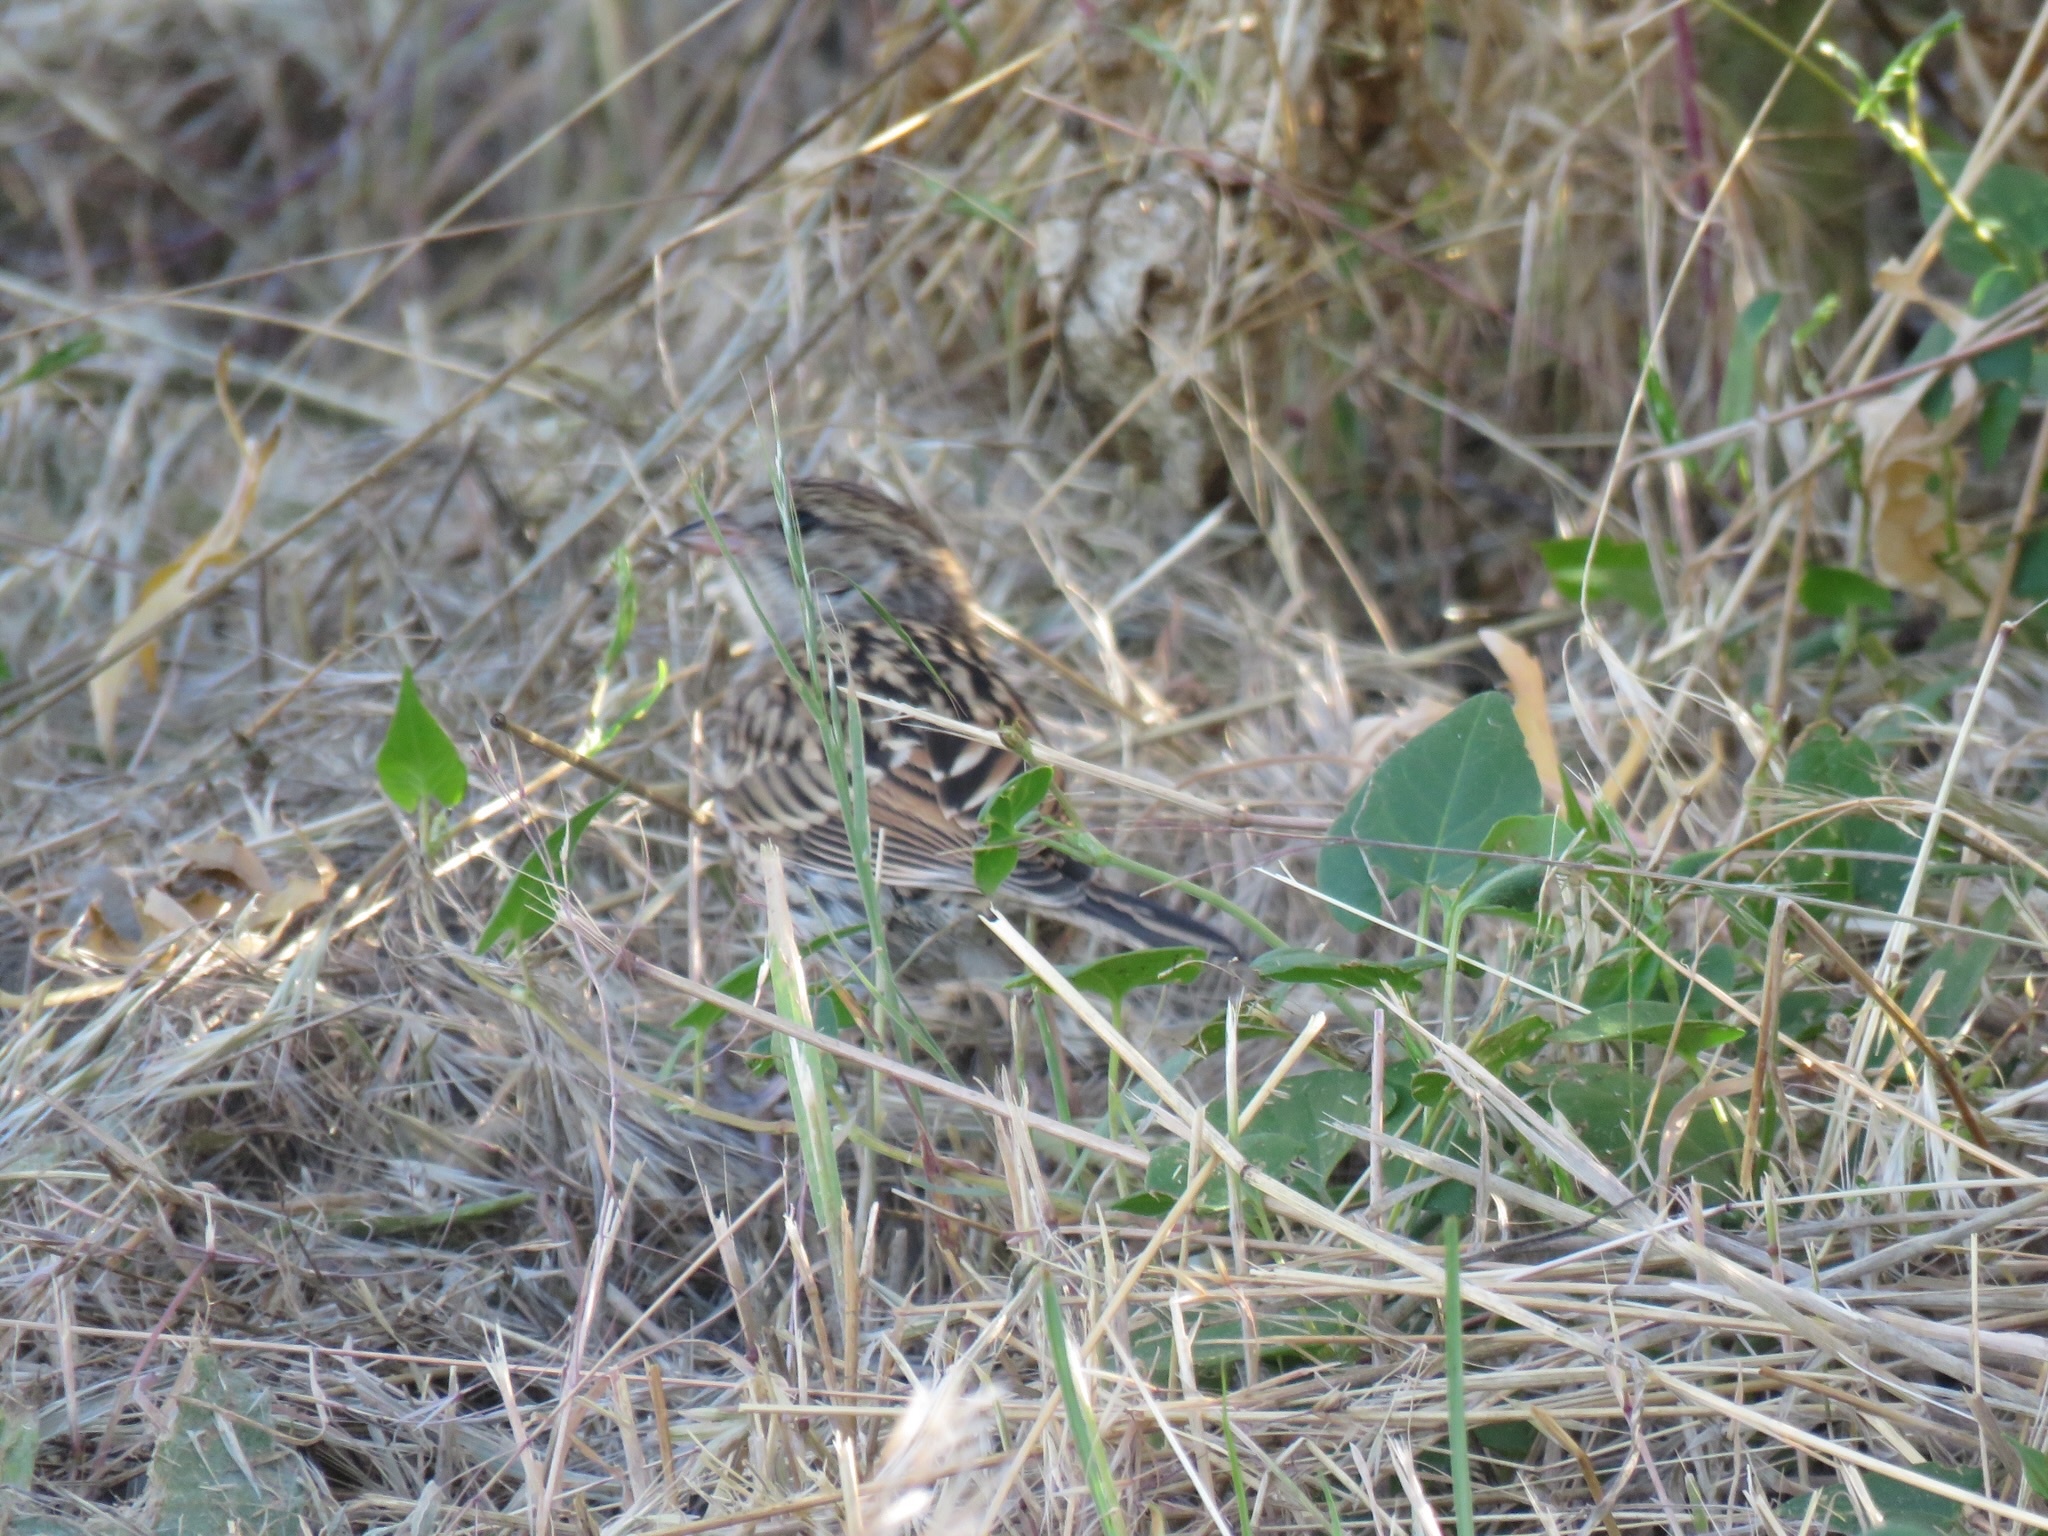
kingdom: Animalia
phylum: Chordata
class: Aves
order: Passeriformes
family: Passerellidae
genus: Spizella
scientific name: Spizella passerina
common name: Chipping sparrow
